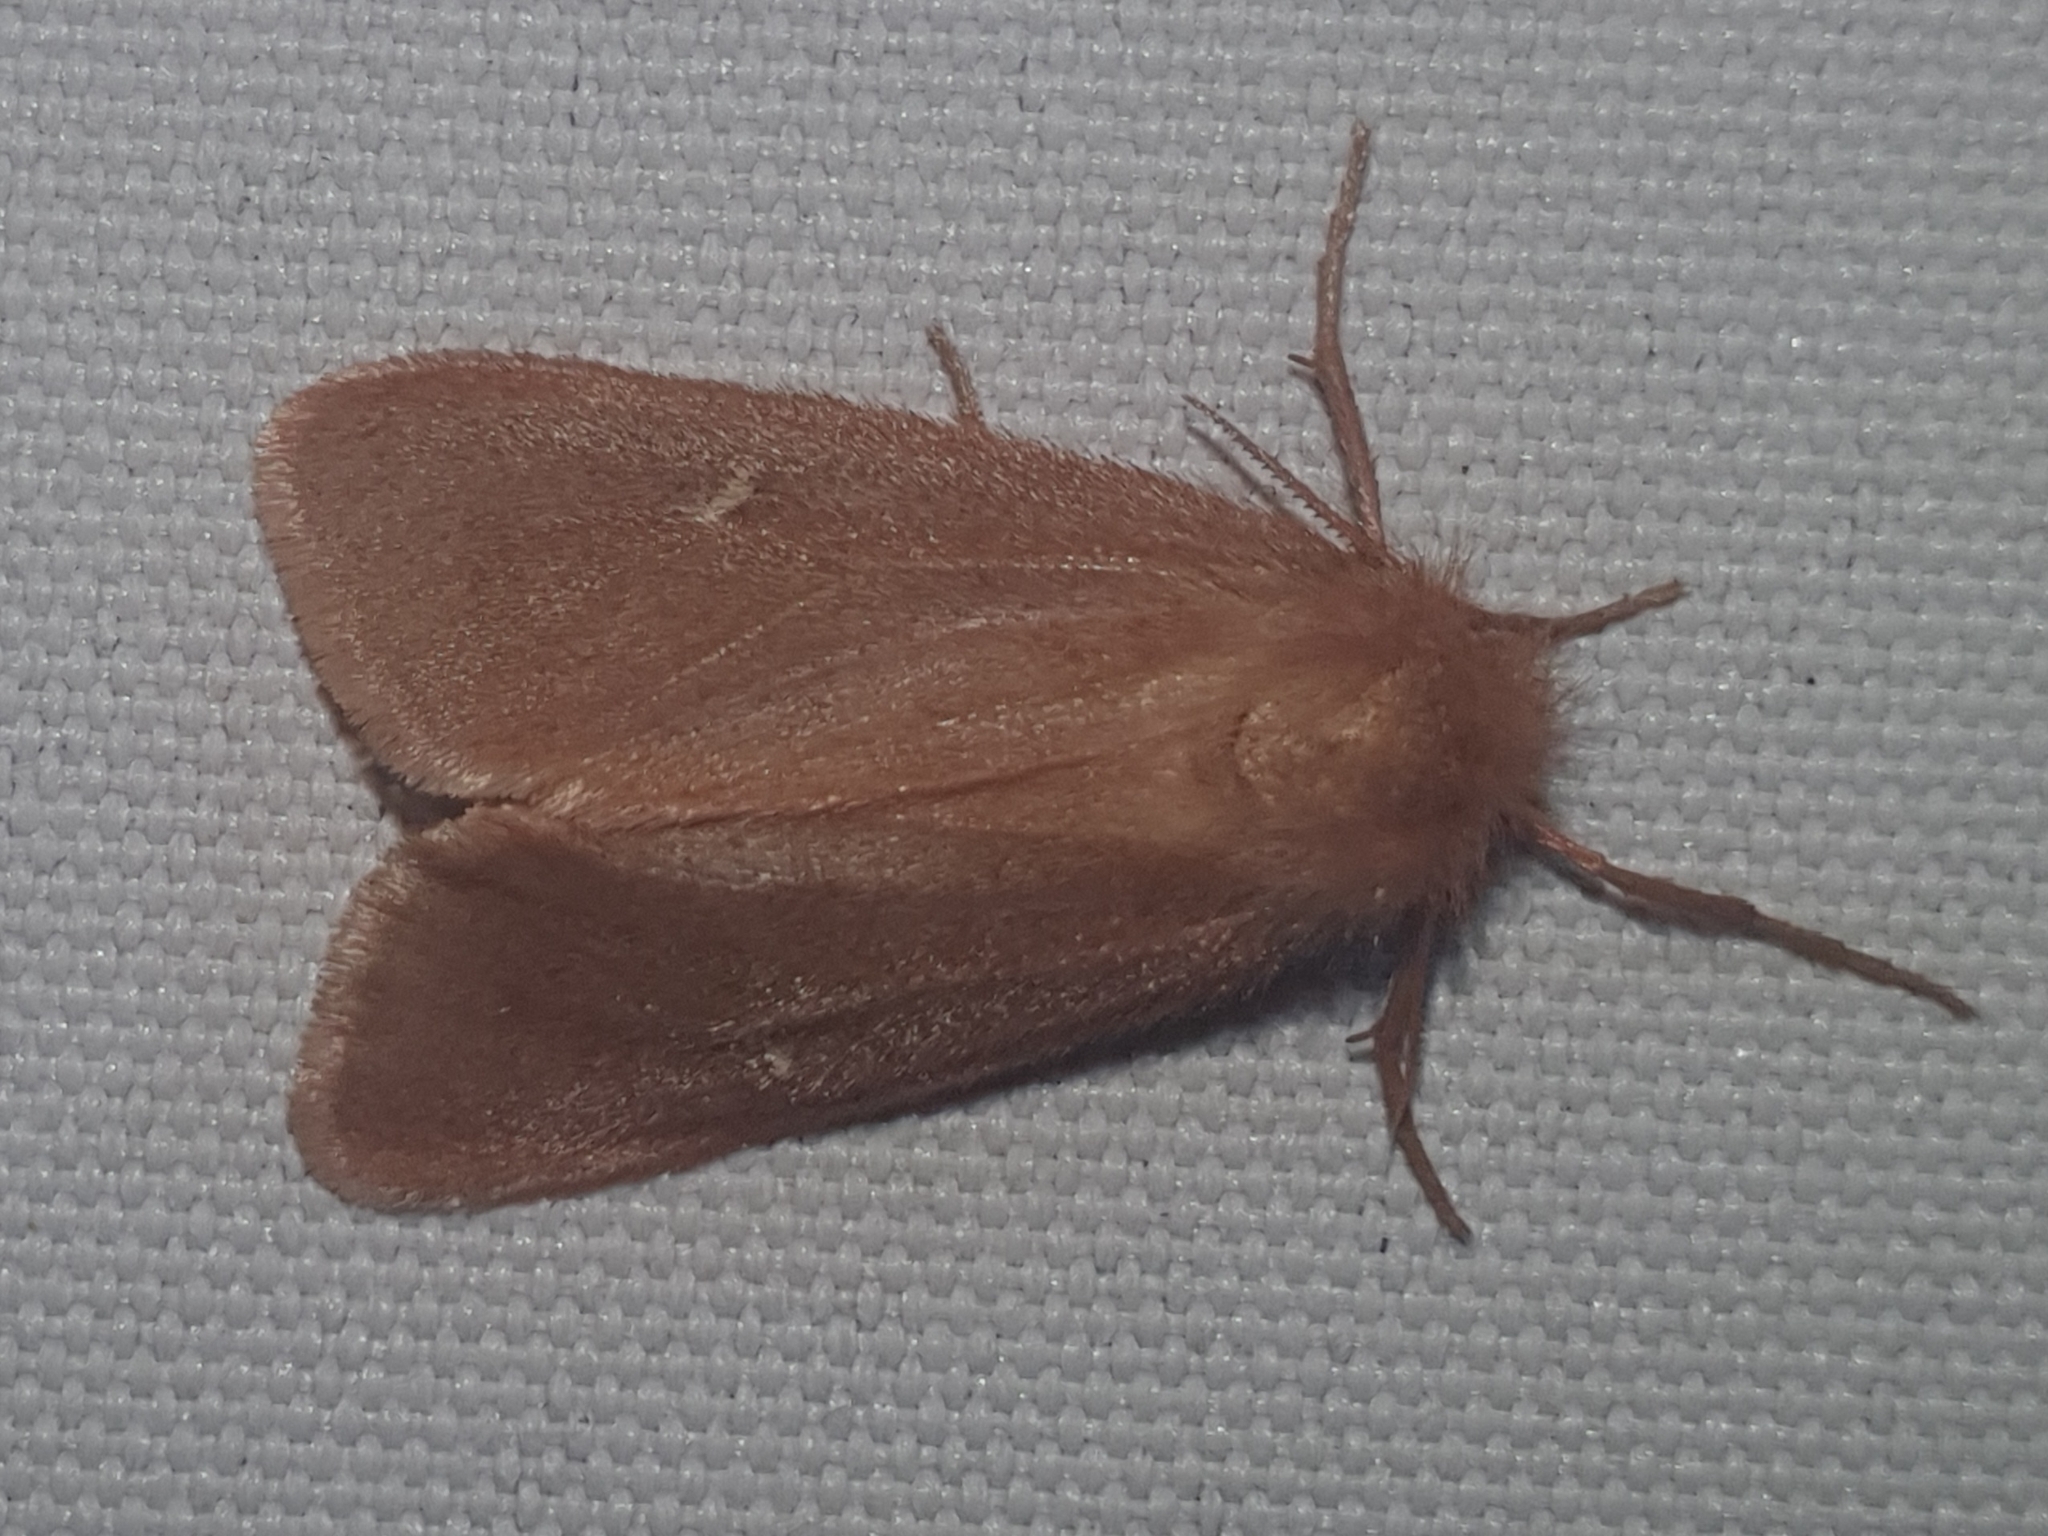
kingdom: Animalia
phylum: Arthropoda
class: Insecta
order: Lepidoptera
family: Erebidae
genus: Ocneria
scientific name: Ocneria rubea
